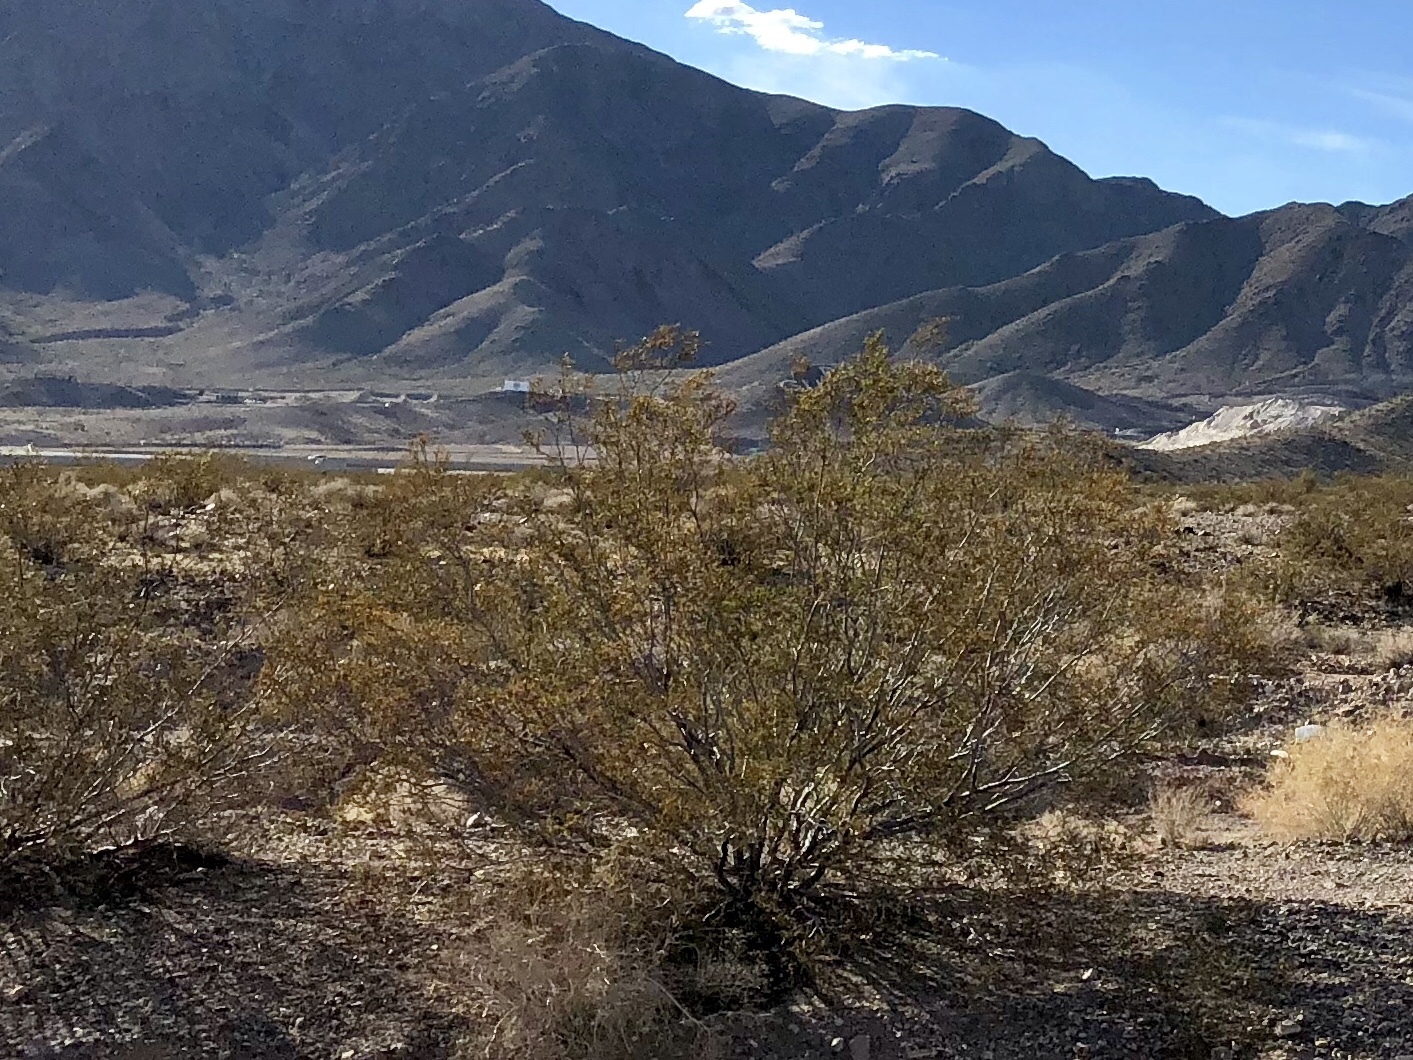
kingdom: Plantae
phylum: Tracheophyta
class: Magnoliopsida
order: Zygophyllales
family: Zygophyllaceae
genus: Larrea
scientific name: Larrea tridentata
